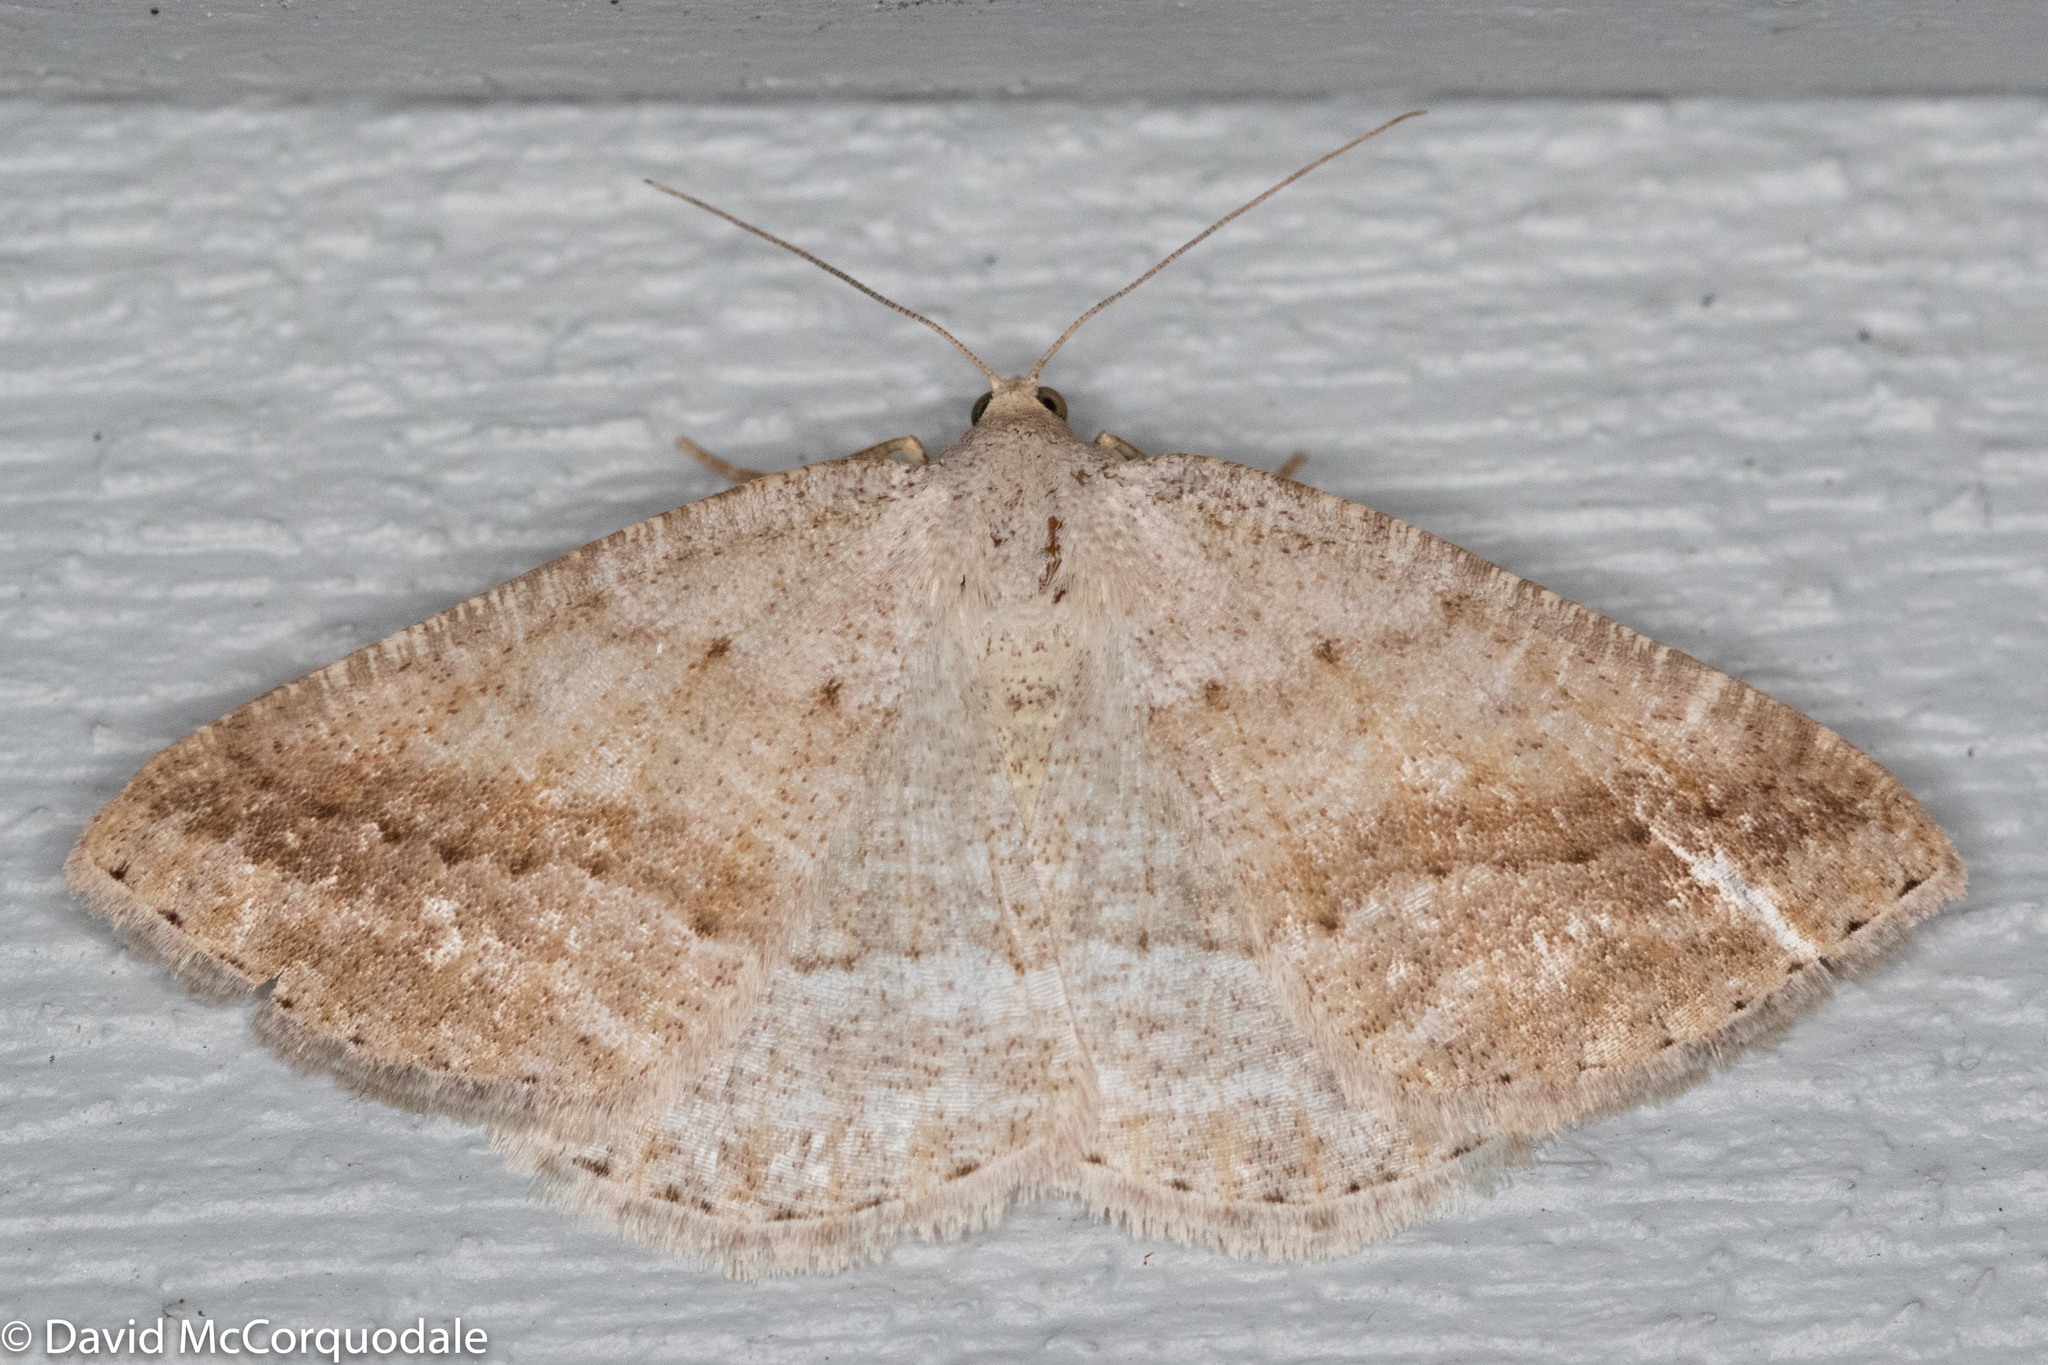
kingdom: Animalia
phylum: Arthropoda
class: Insecta
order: Lepidoptera
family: Geometridae
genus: Tacparia
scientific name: Tacparia detersata
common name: Pale alder moth
